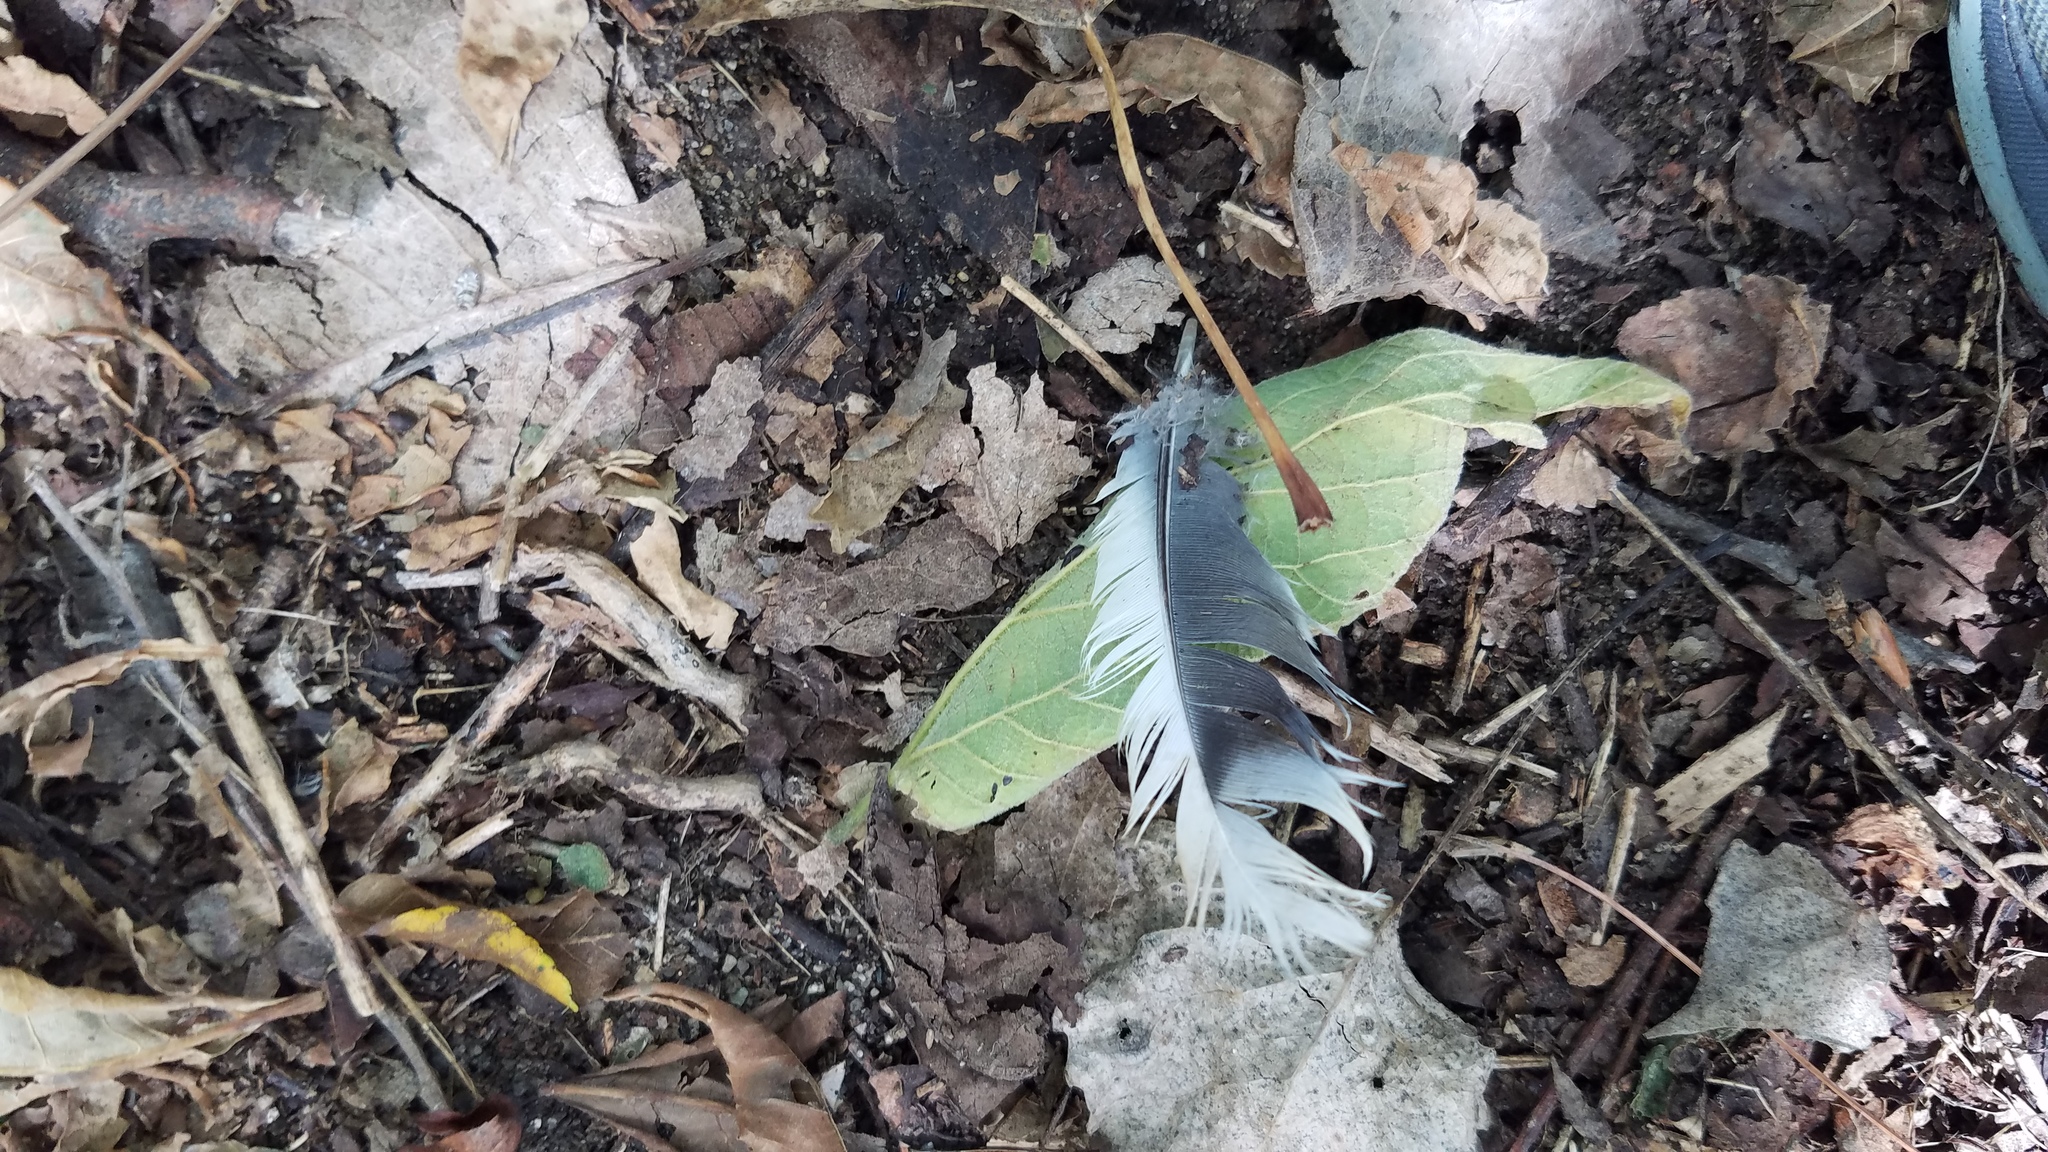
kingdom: Animalia
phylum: Chordata
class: Aves
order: Columbiformes
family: Columbidae
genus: Zenaida
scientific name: Zenaida macroura
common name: Mourning dove
